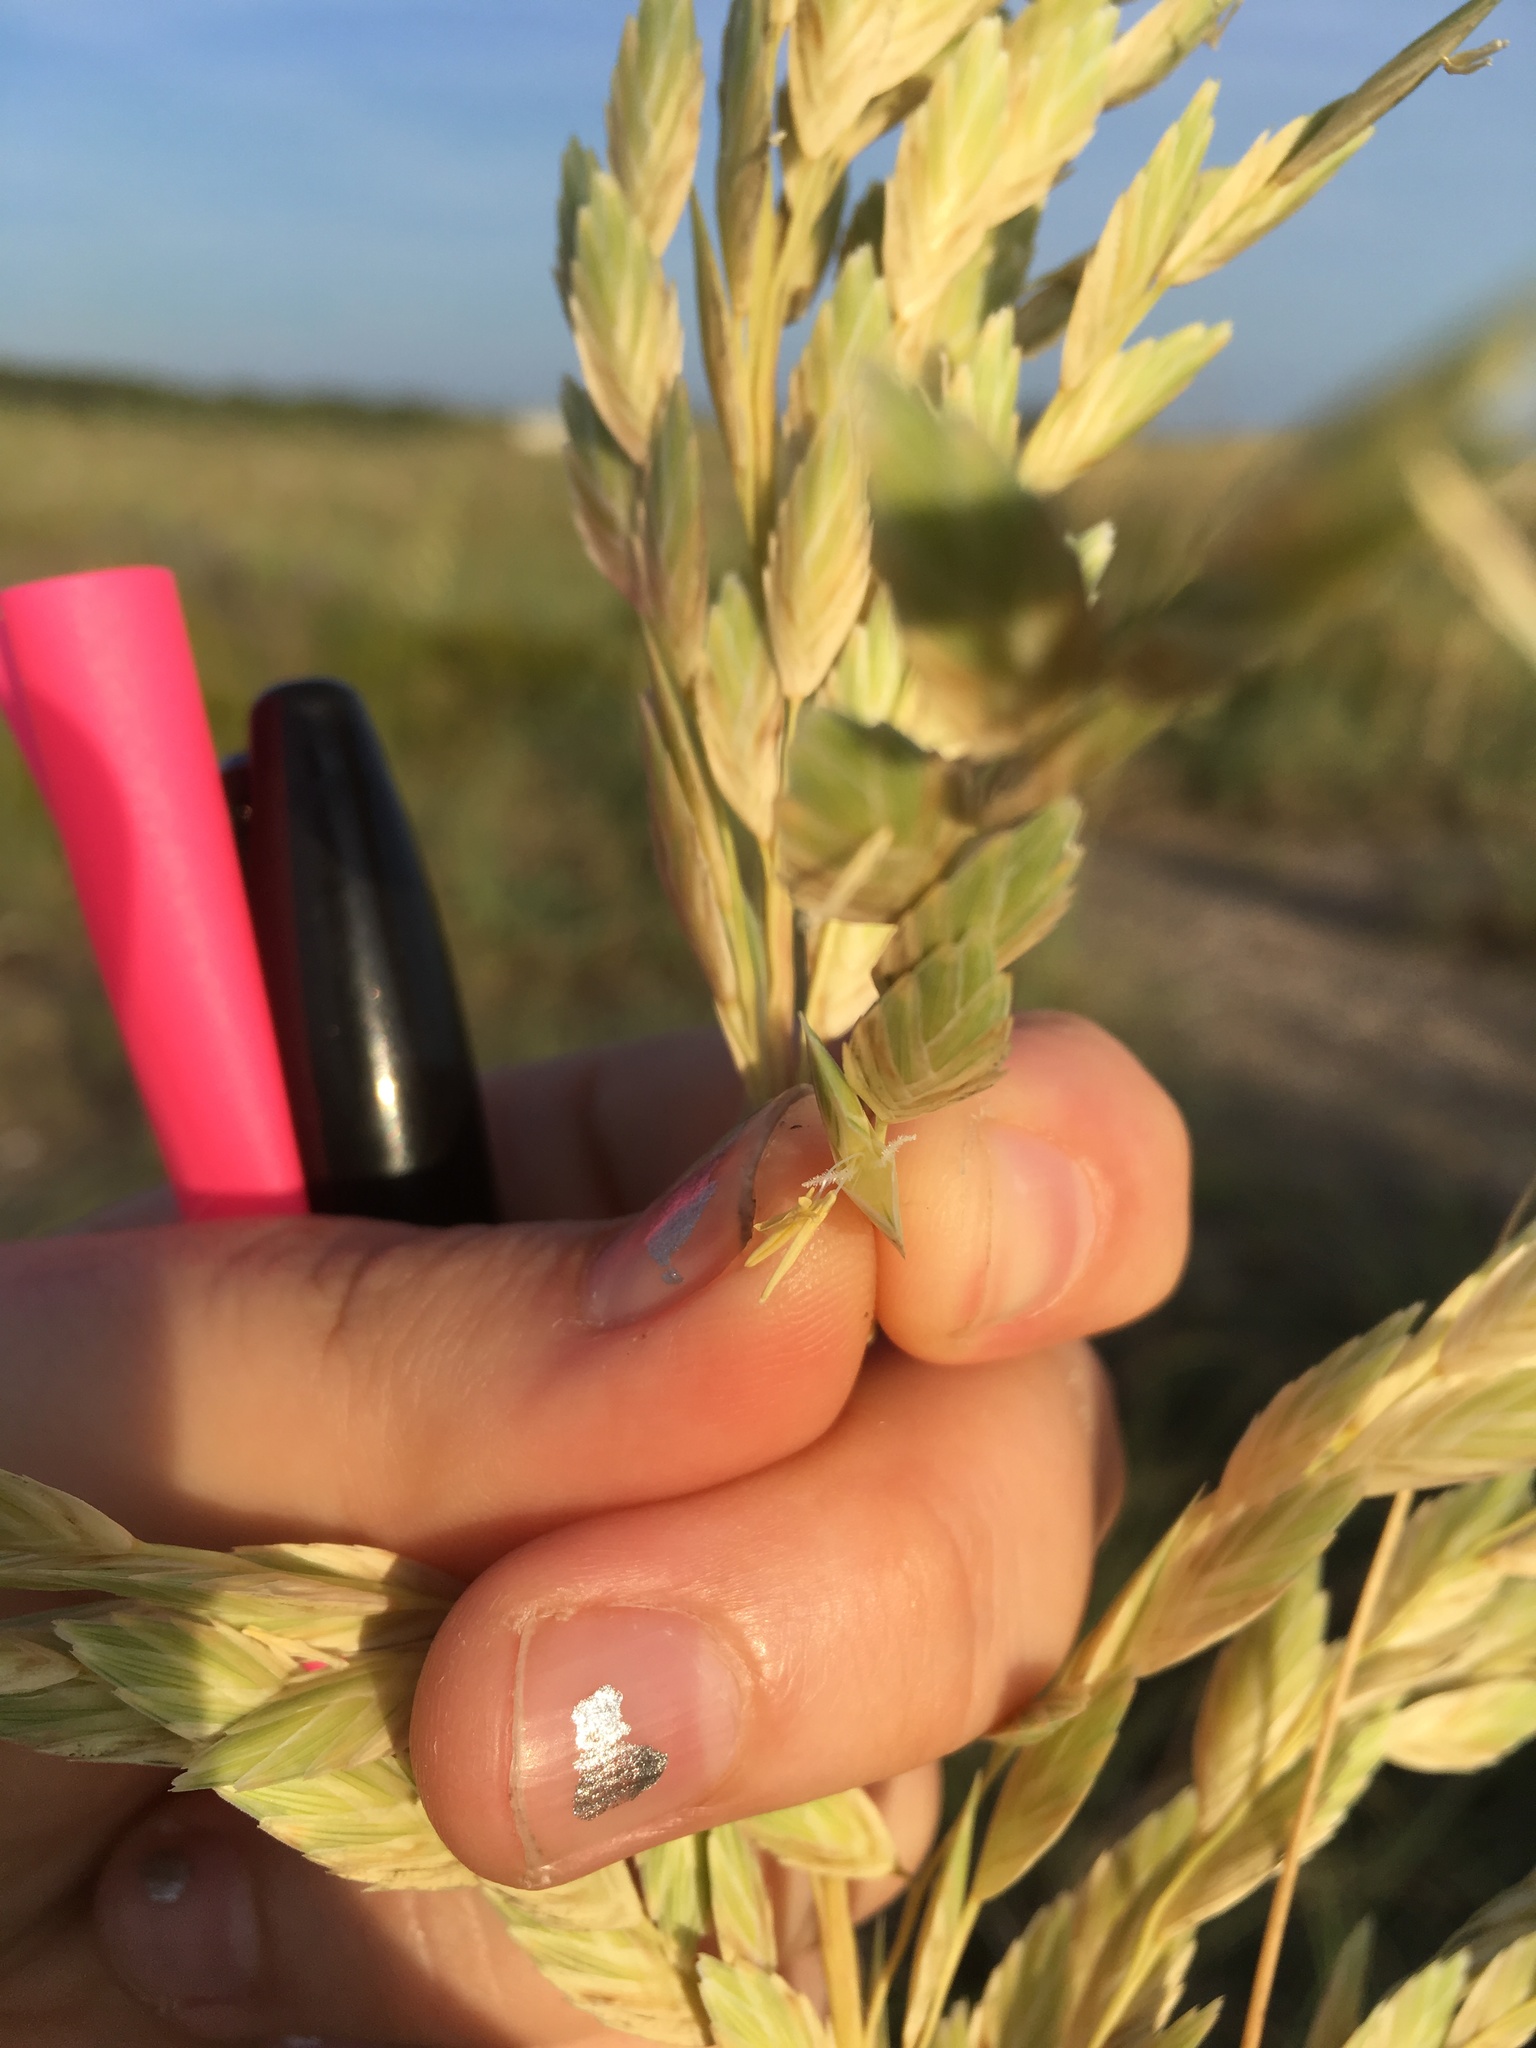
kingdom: Plantae
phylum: Tracheophyta
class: Liliopsida
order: Poales
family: Poaceae
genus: Uniola
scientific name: Uniola paniculata
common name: Seaside-oats
